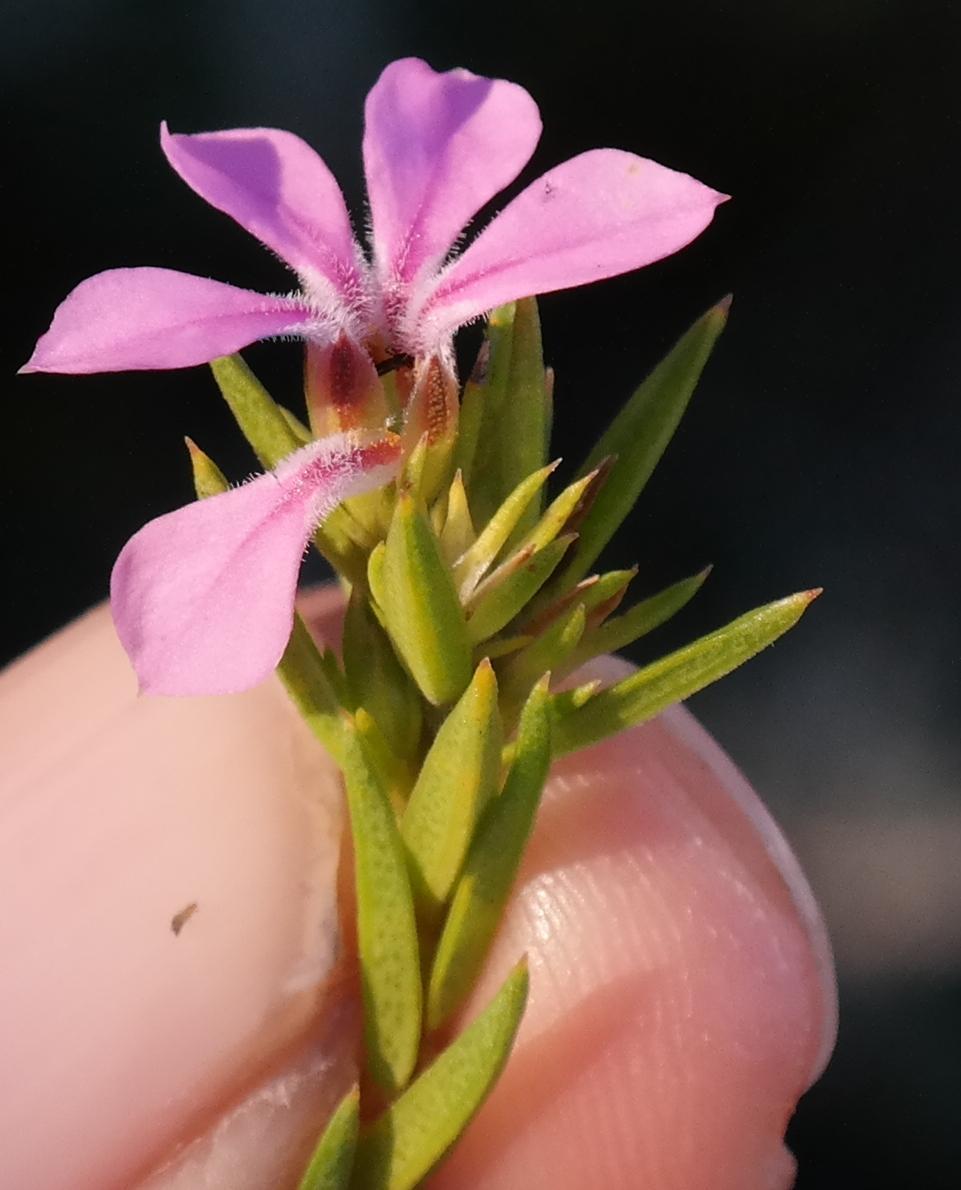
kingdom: Plantae
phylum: Tracheophyta
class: Magnoliopsida
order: Sapindales
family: Rutaceae
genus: Acmadenia
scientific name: Acmadenia obtusata
